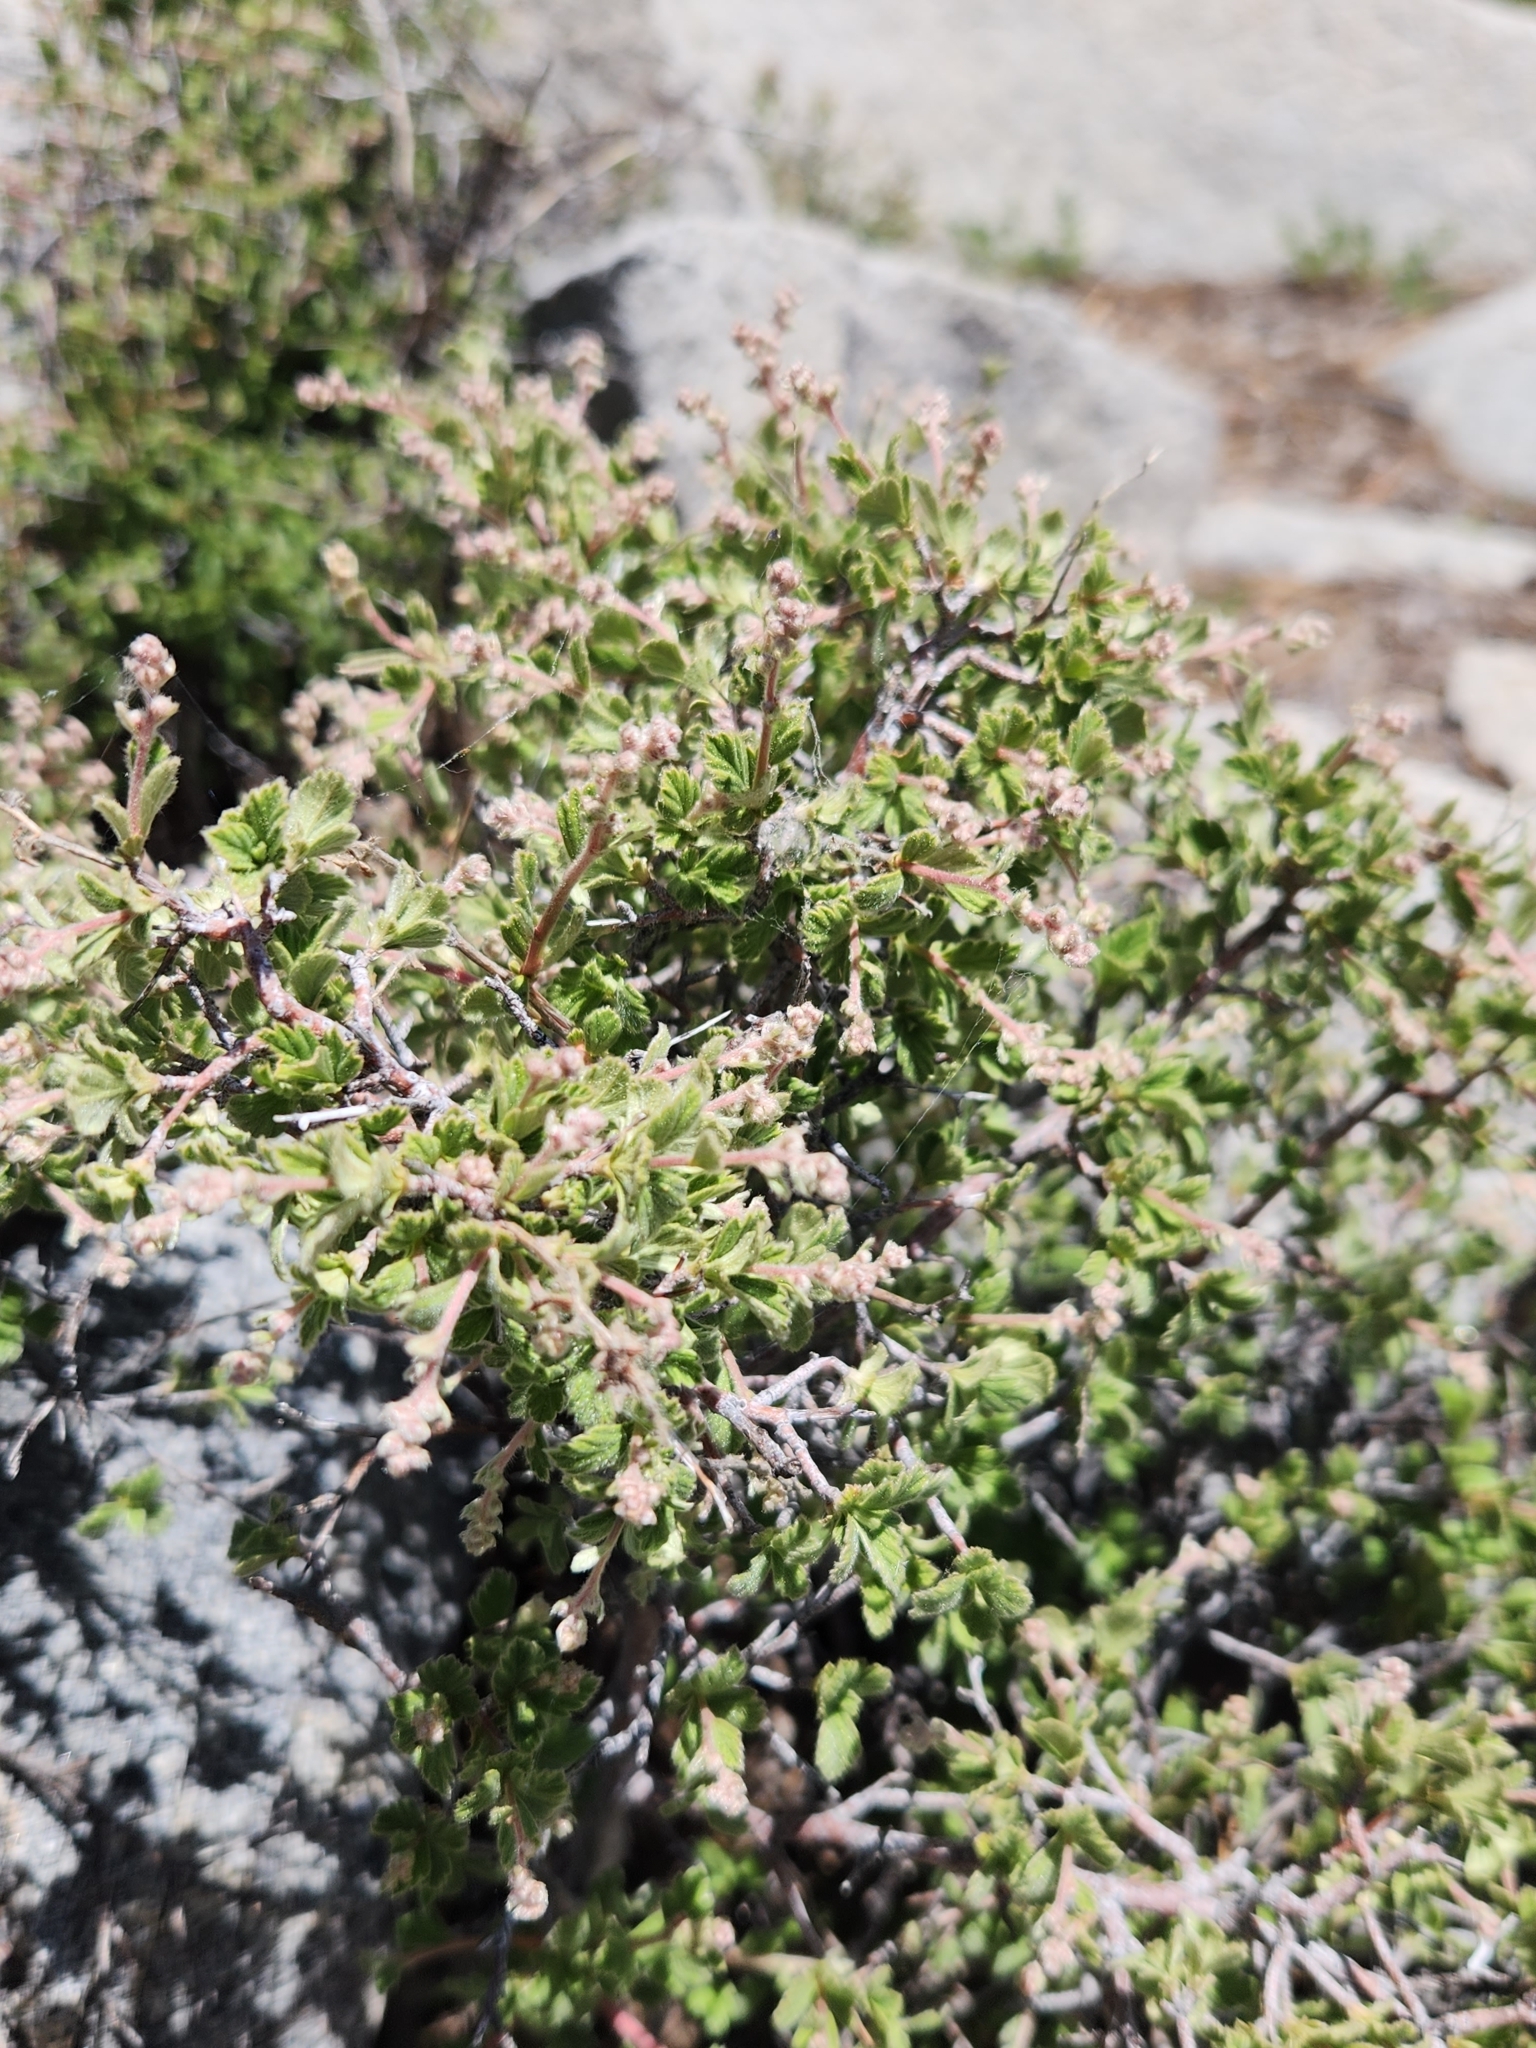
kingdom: Plantae
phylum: Tracheophyta
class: Magnoliopsida
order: Rosales
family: Rosaceae
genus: Holodiscus
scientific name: Holodiscus discolor
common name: Oceanspray
